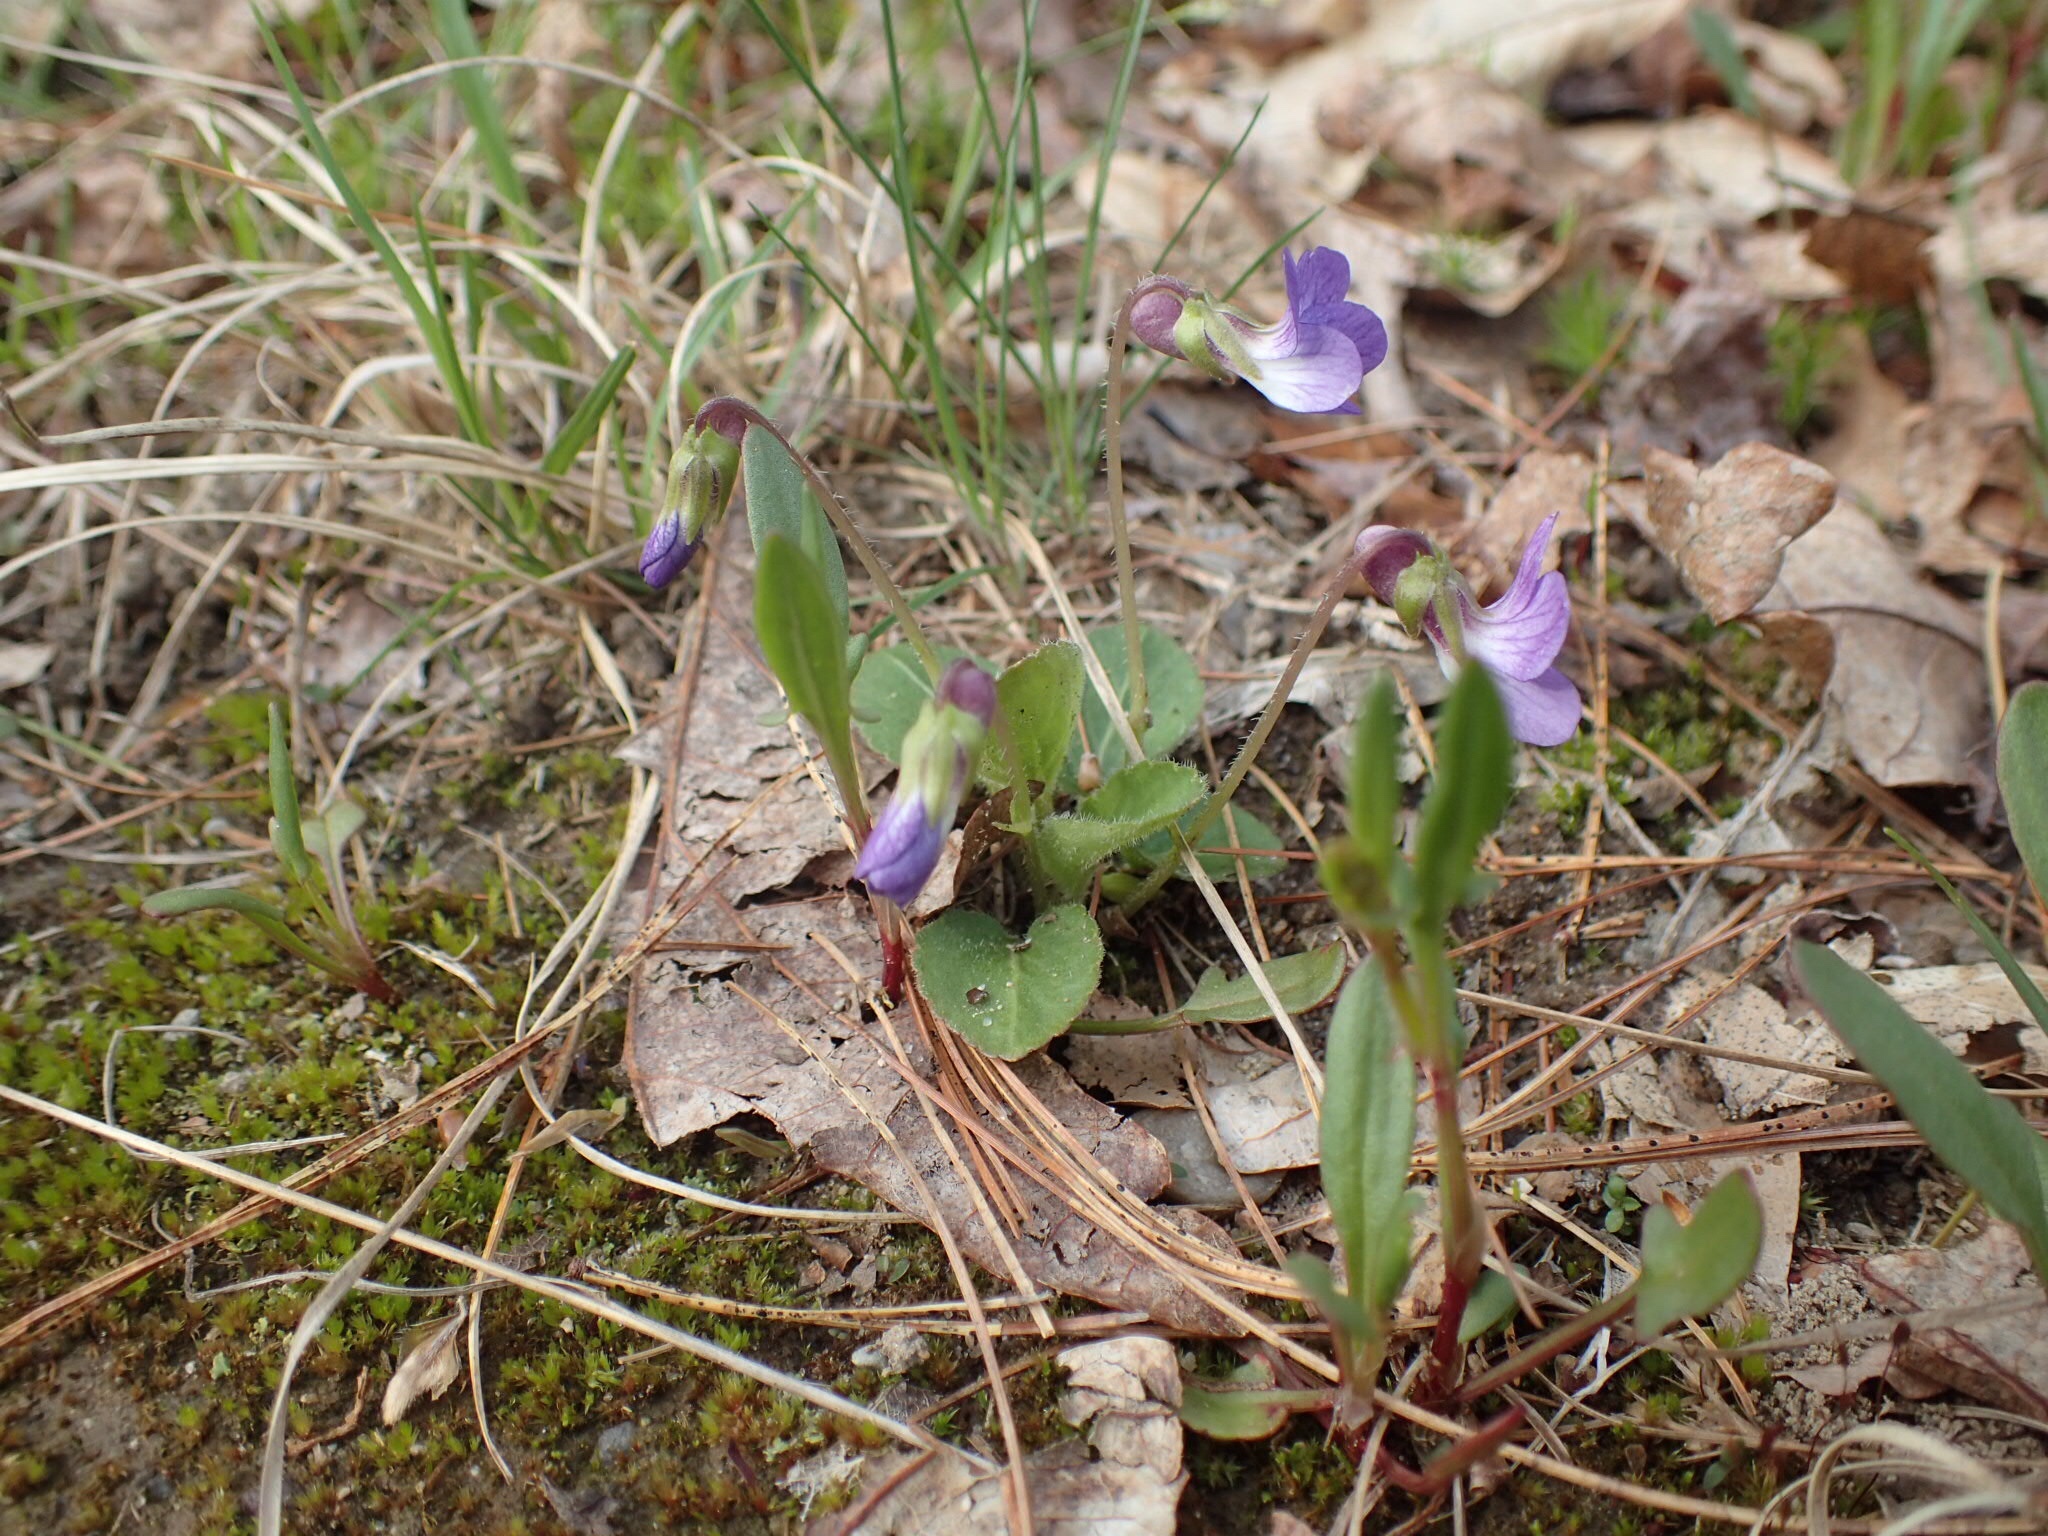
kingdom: Plantae
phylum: Tracheophyta
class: Magnoliopsida
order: Malpighiales
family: Violaceae
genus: Viola
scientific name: Viola sororia
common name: Dooryard violet
